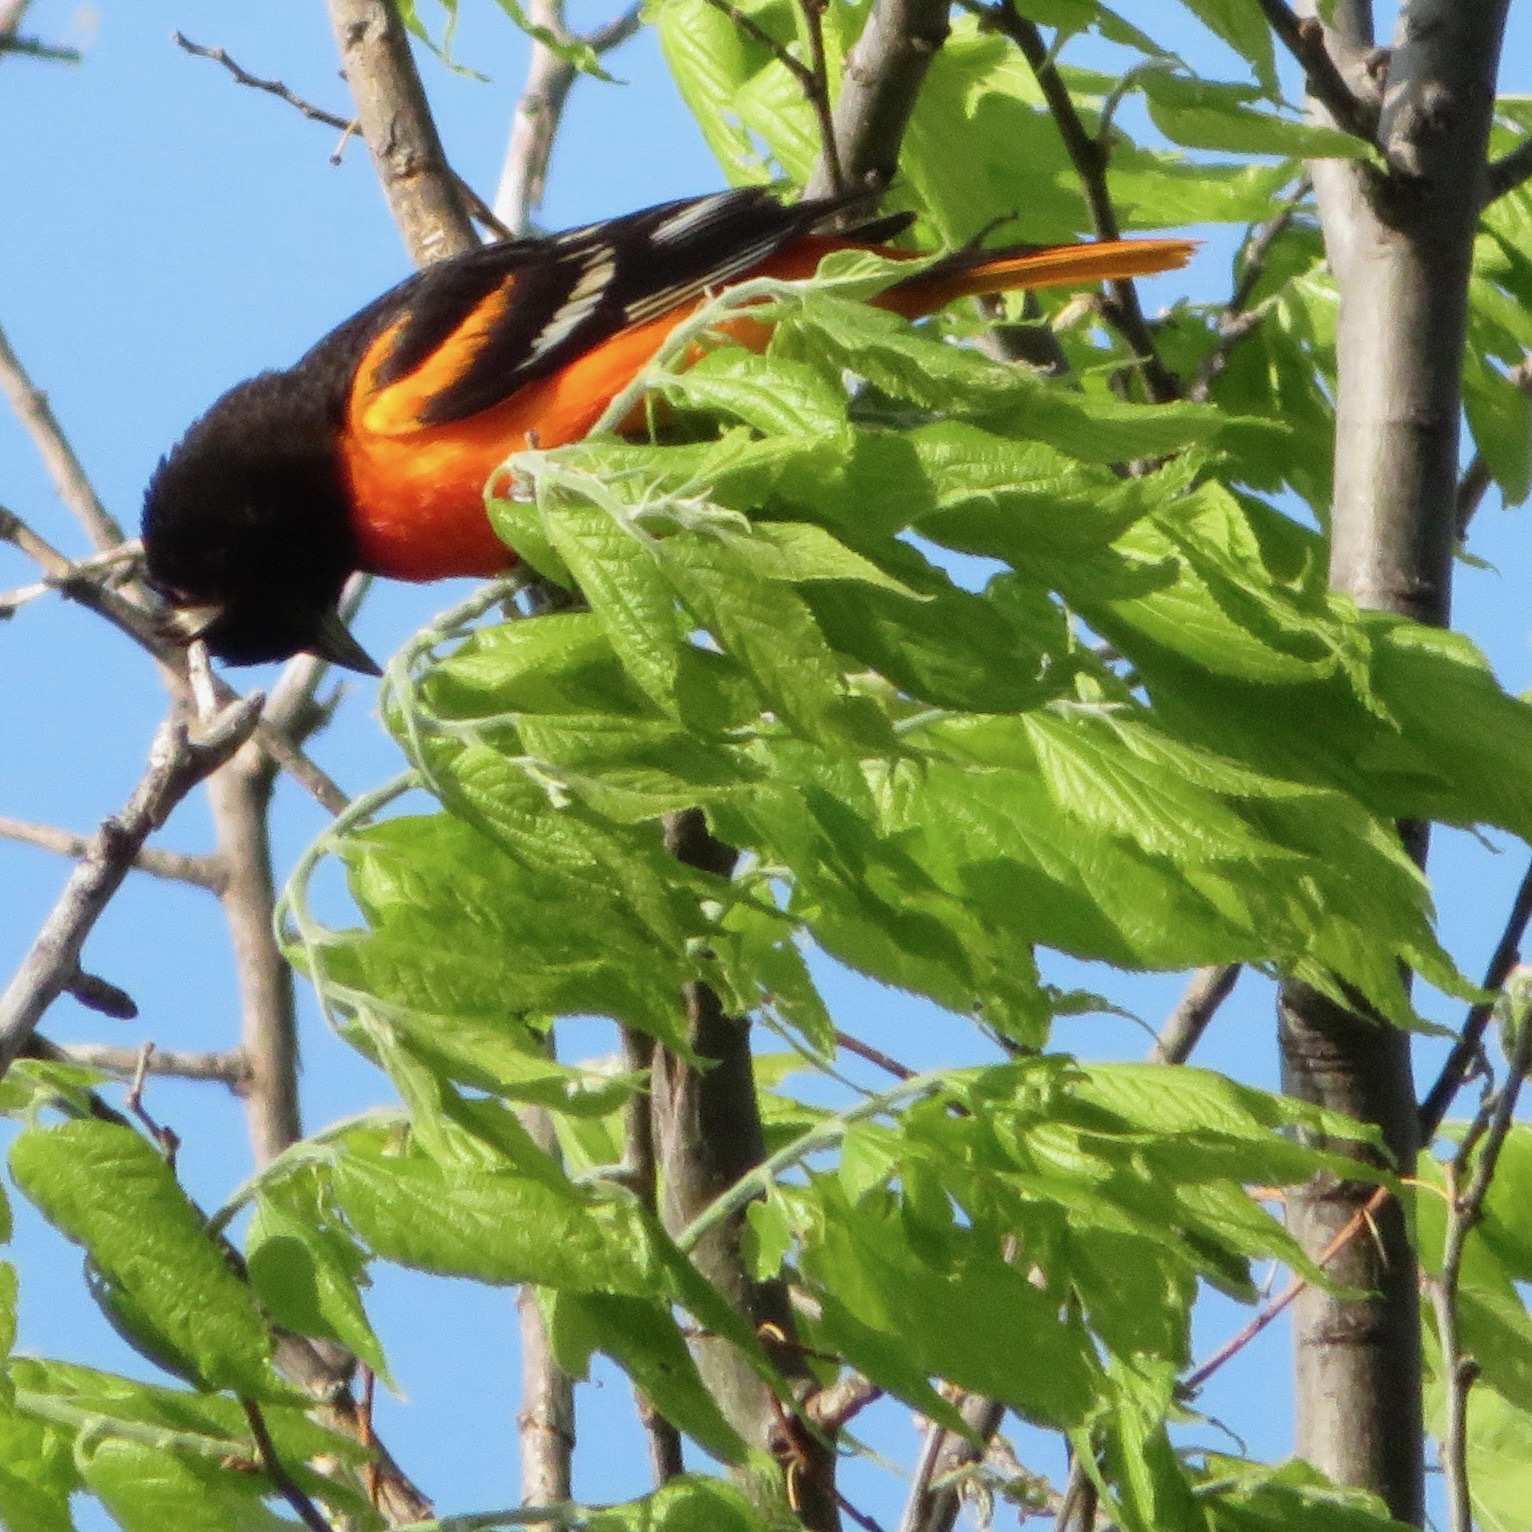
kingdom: Animalia
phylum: Chordata
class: Aves
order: Passeriformes
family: Icteridae
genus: Icterus
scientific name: Icterus galbula
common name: Baltimore oriole
